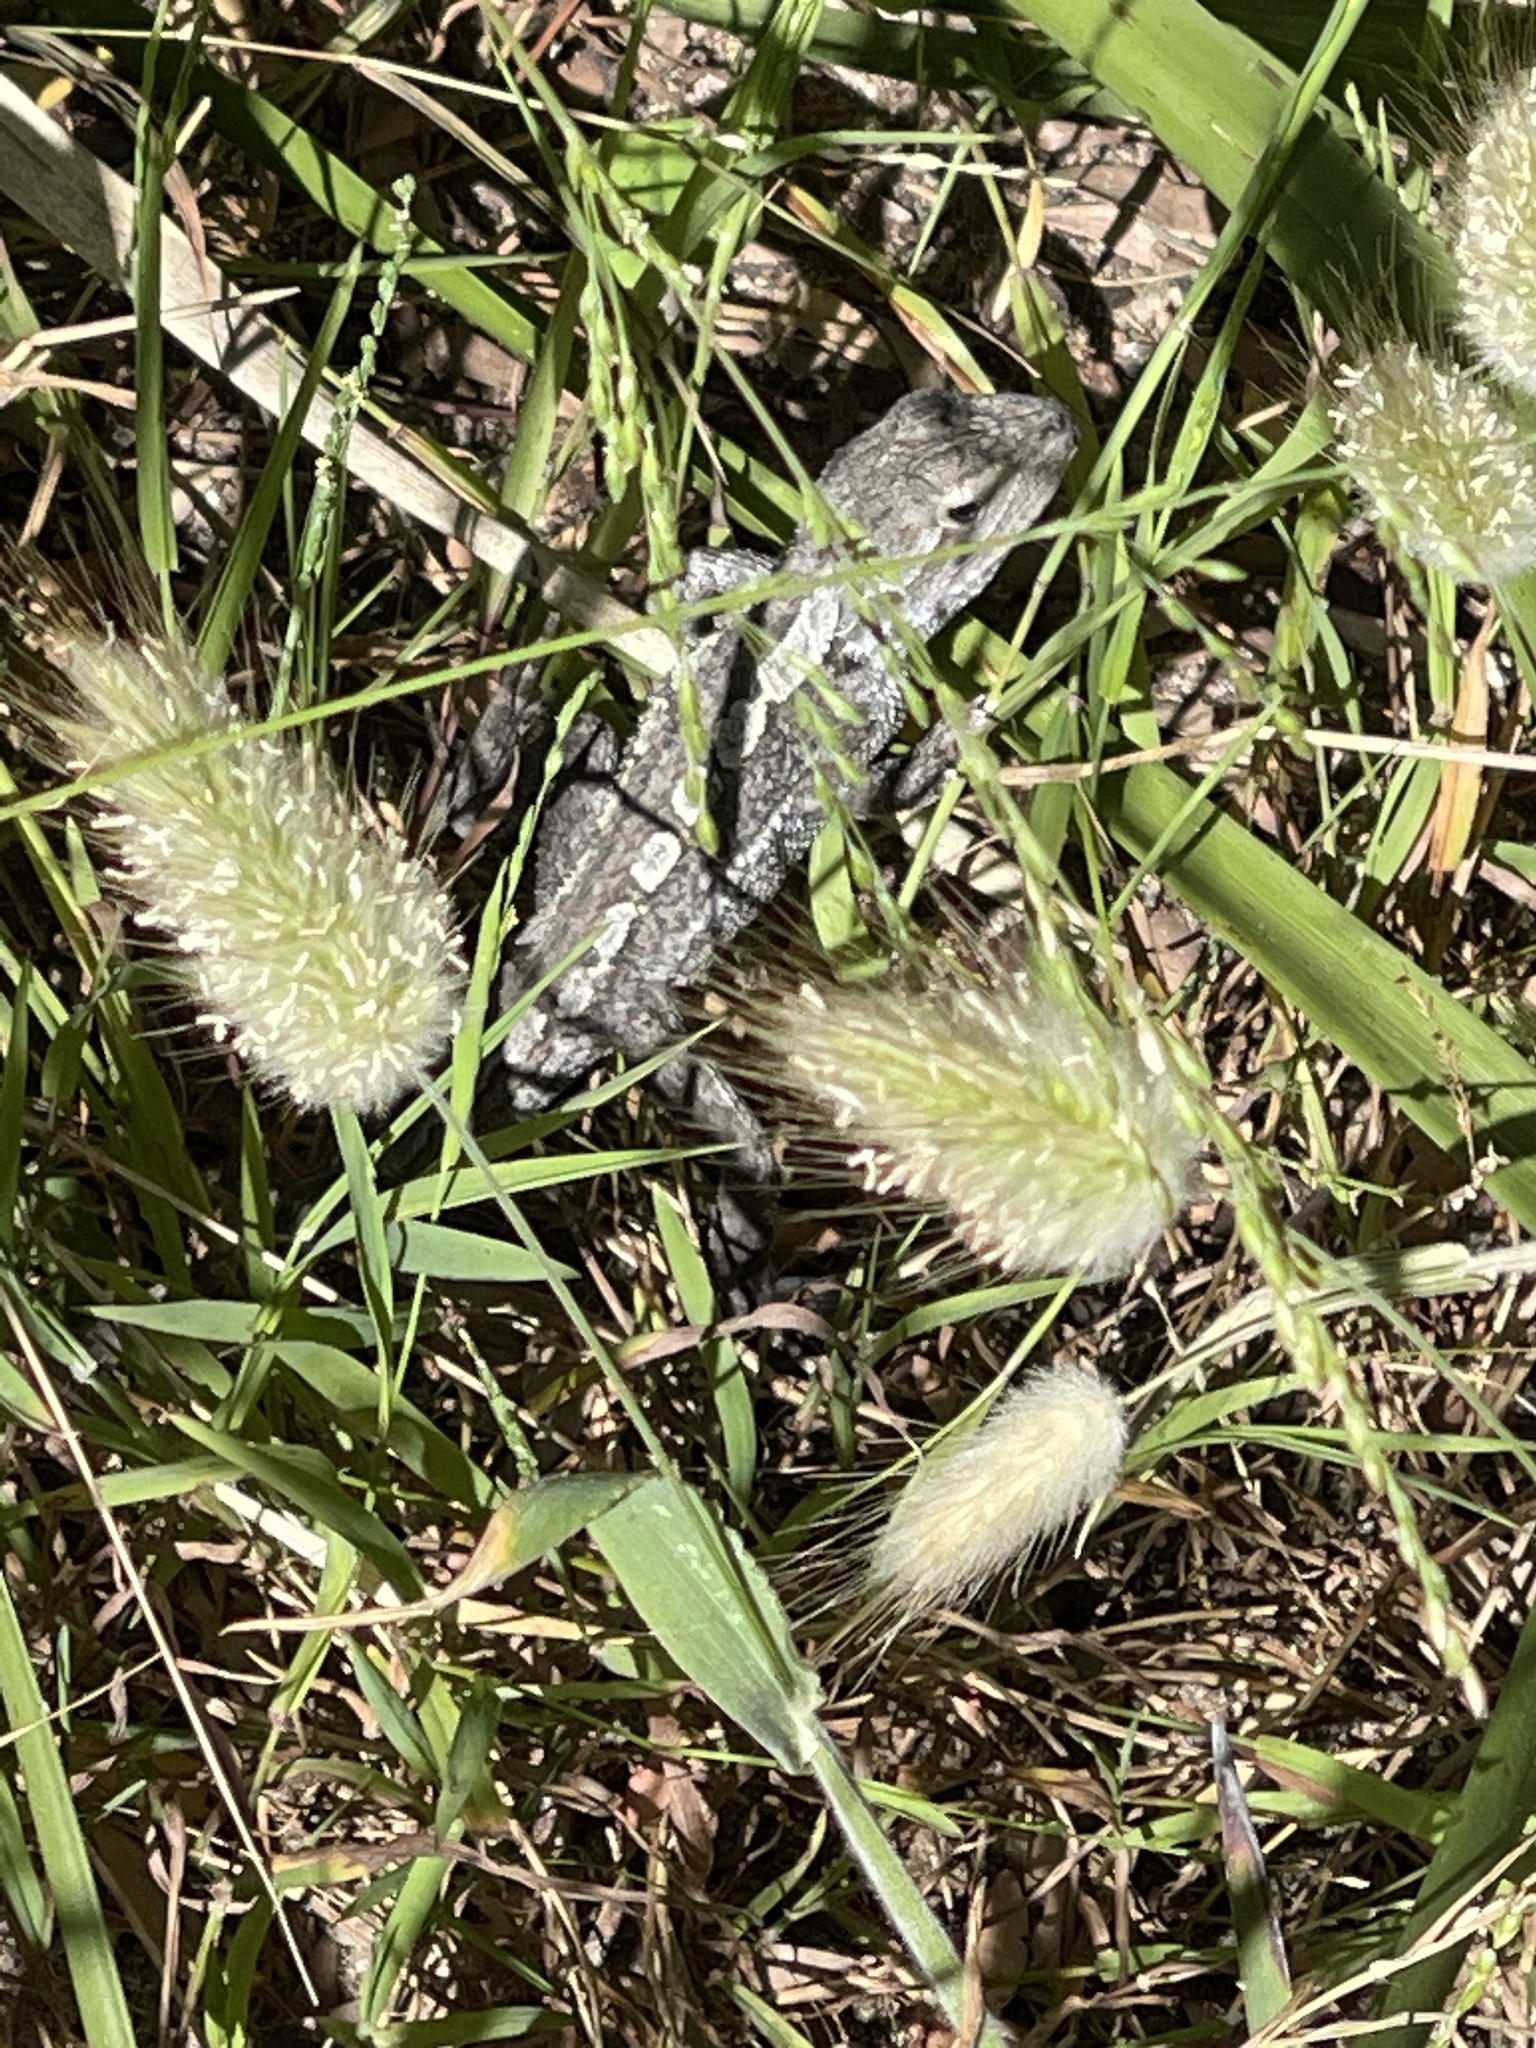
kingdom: Animalia
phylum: Chordata
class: Squamata
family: Agamidae
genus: Amphibolurus
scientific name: Amphibolurus muricatus
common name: Jacky lizard
